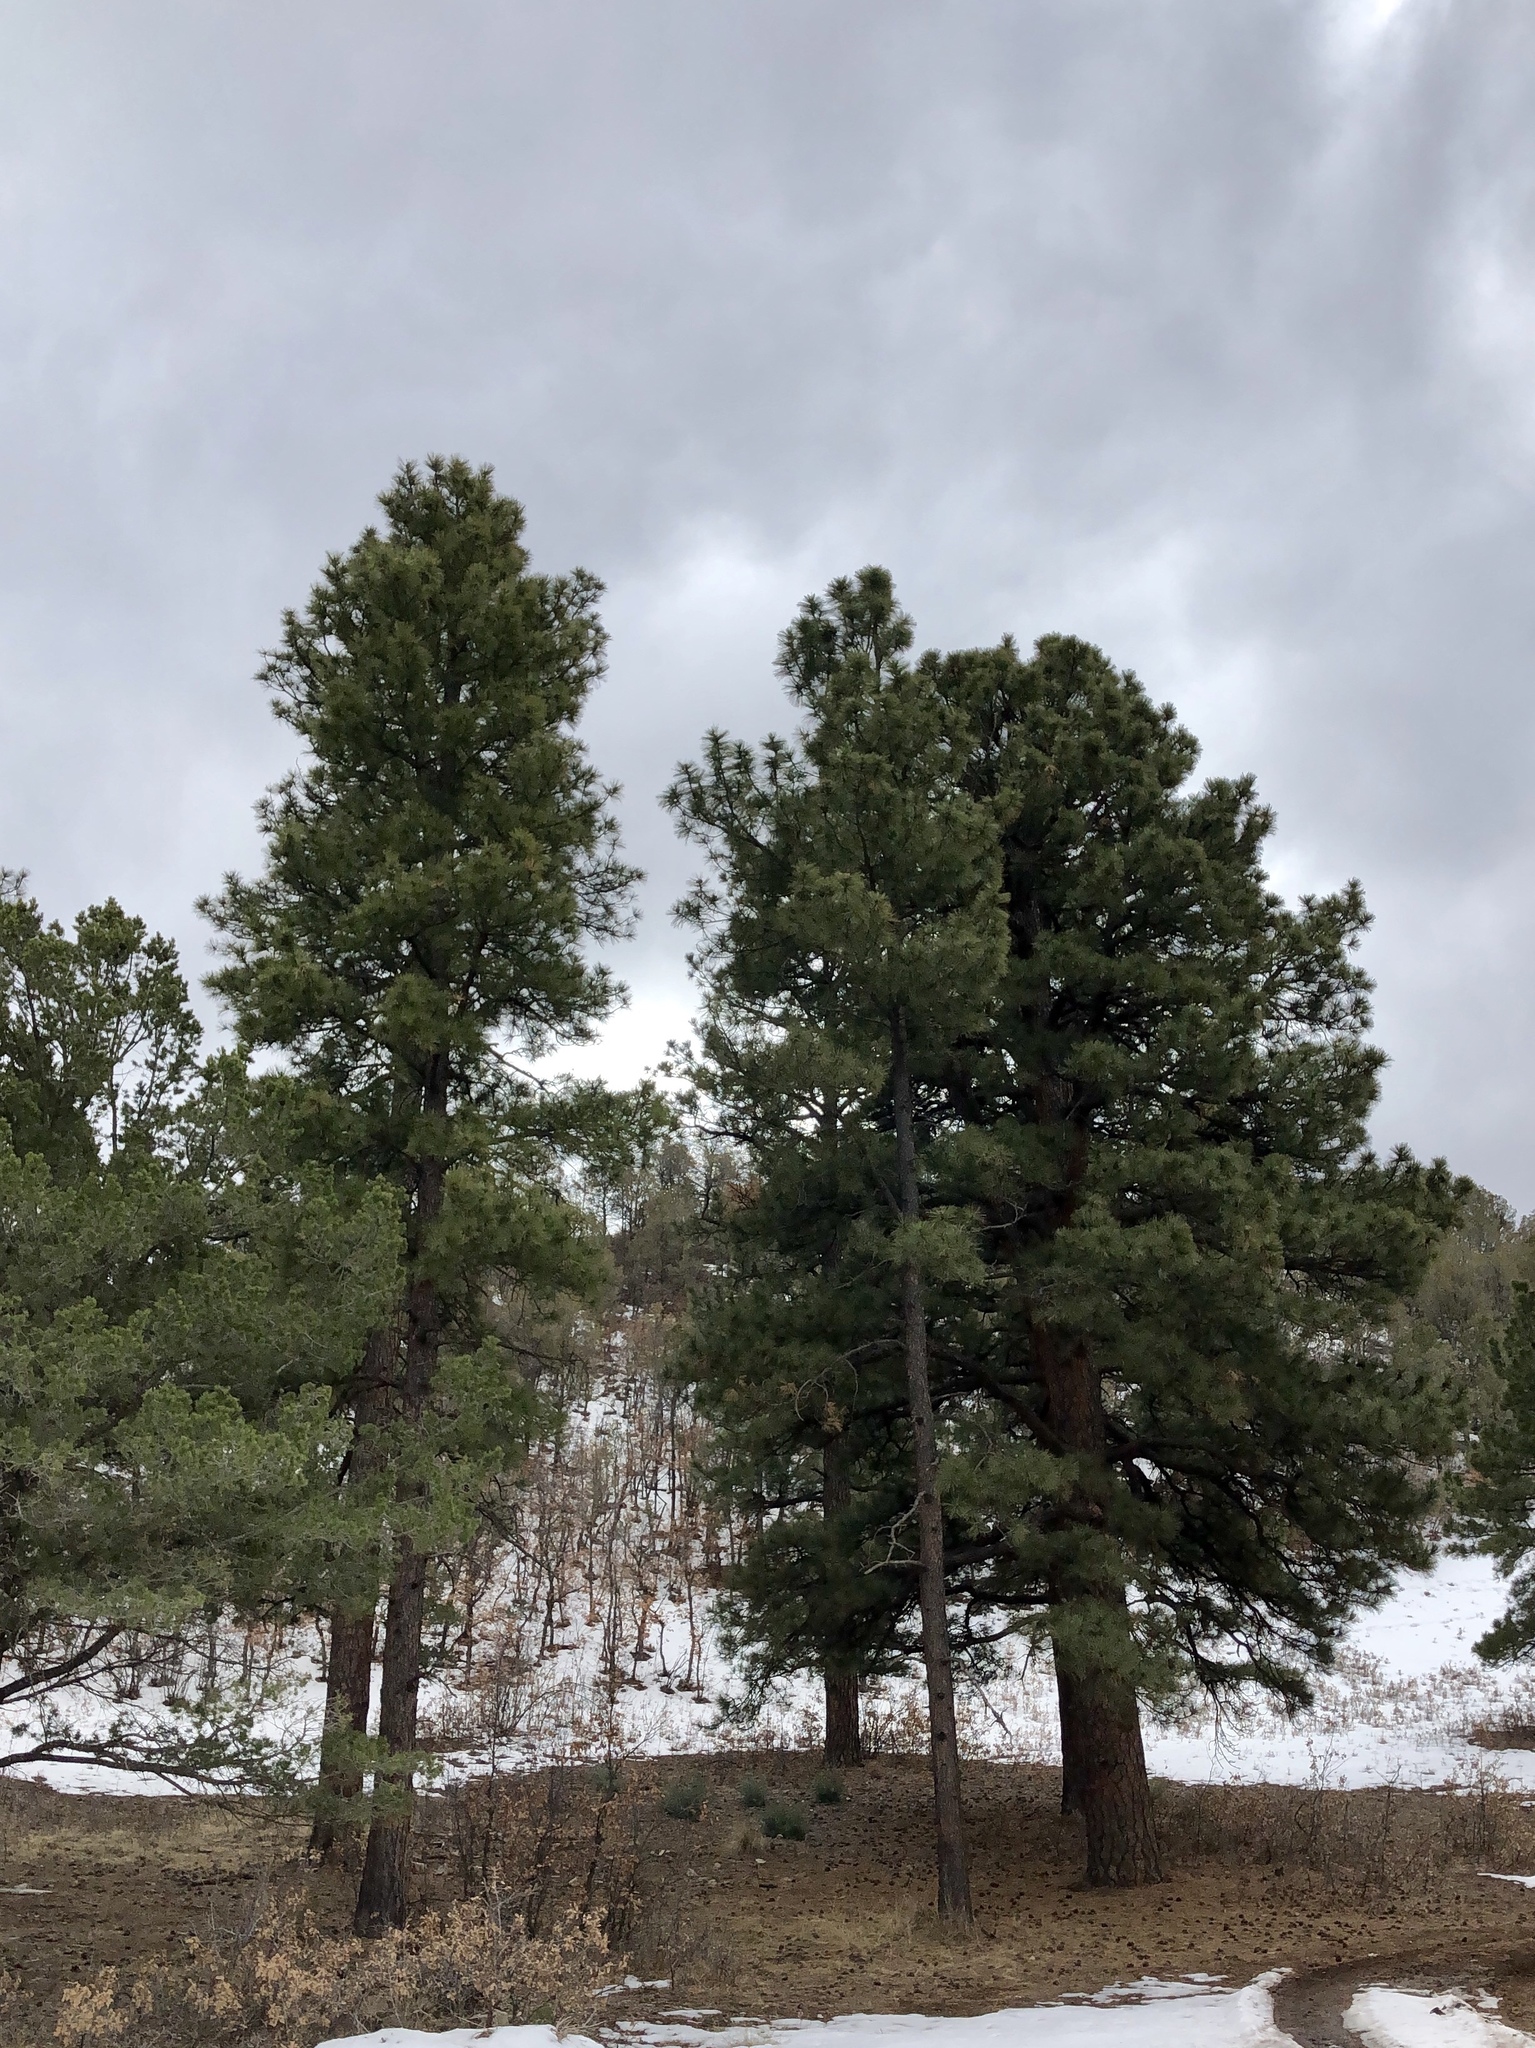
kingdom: Plantae
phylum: Tracheophyta
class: Pinopsida
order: Pinales
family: Pinaceae
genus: Pinus
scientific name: Pinus ponderosa
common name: Western yellow-pine
